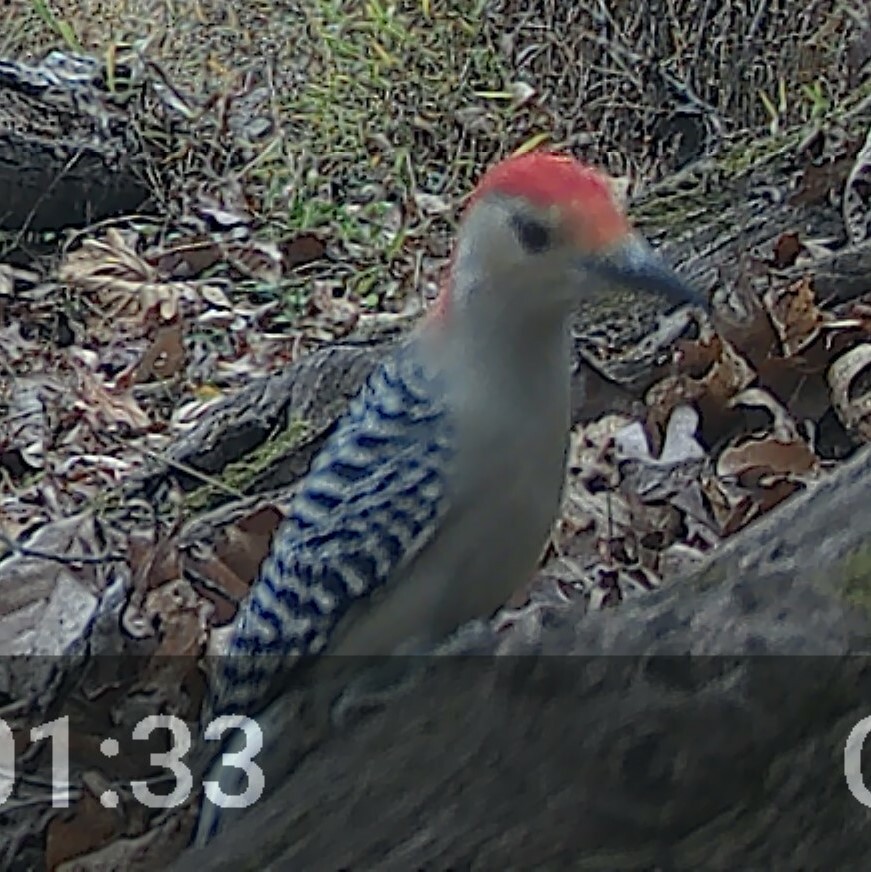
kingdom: Animalia
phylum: Chordata
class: Aves
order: Piciformes
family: Picidae
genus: Melanerpes
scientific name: Melanerpes carolinus
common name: Red-bellied woodpecker
